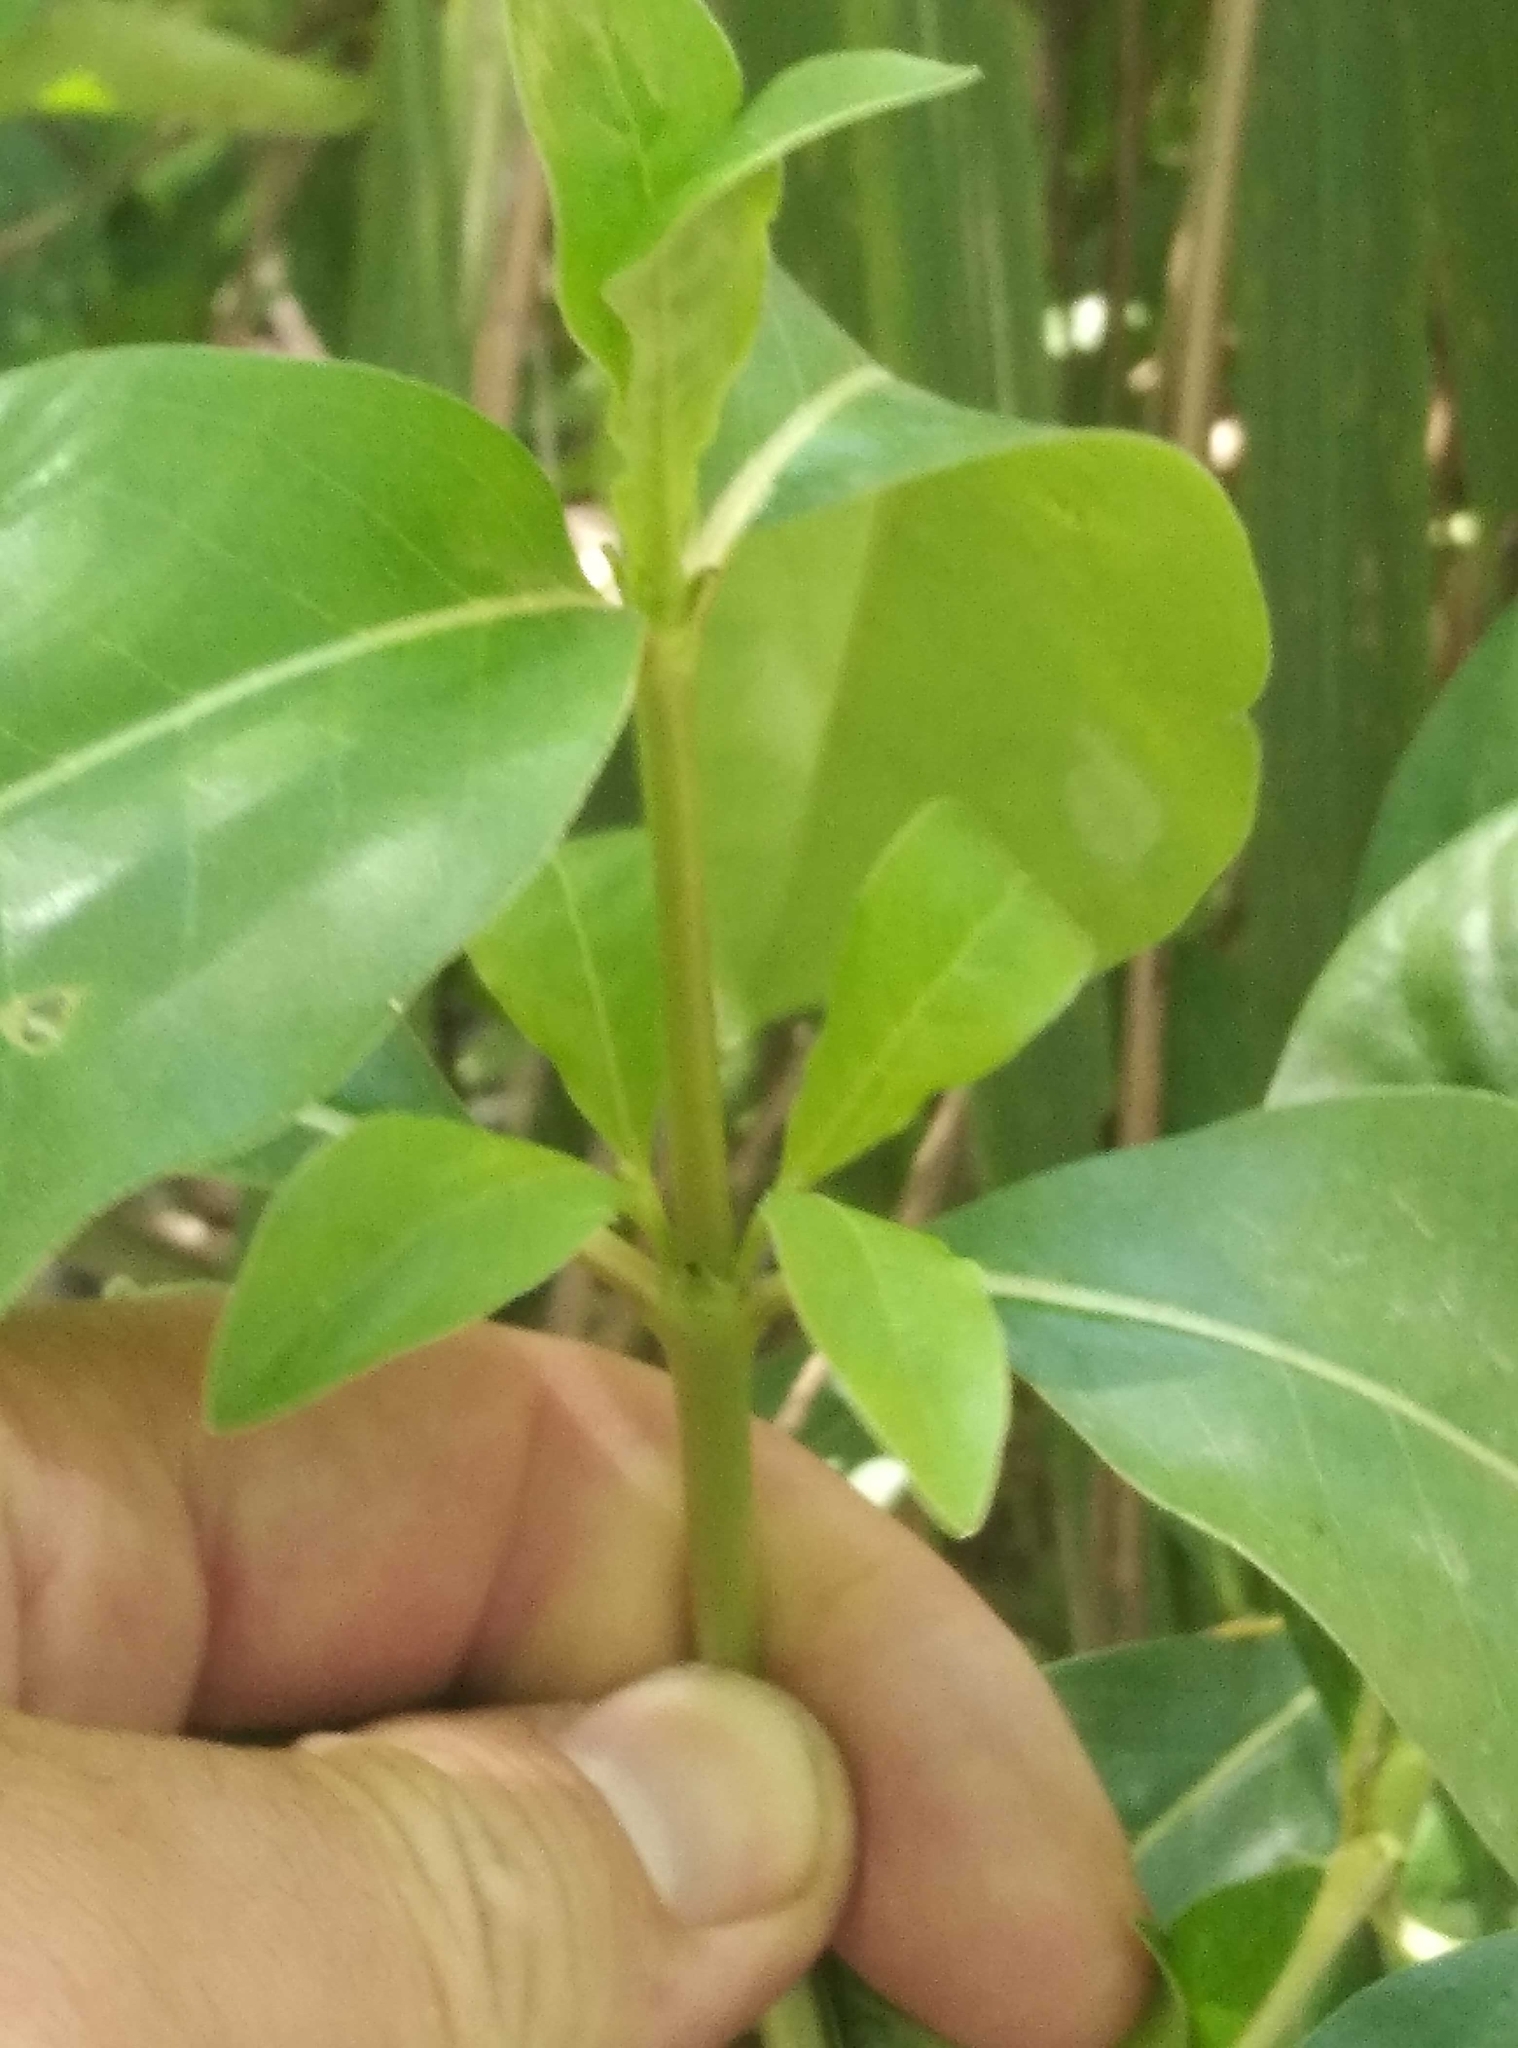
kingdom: Plantae
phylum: Tracheophyta
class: Magnoliopsida
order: Gentianales
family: Rubiaceae
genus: Coprosma
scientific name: Coprosma robusta
